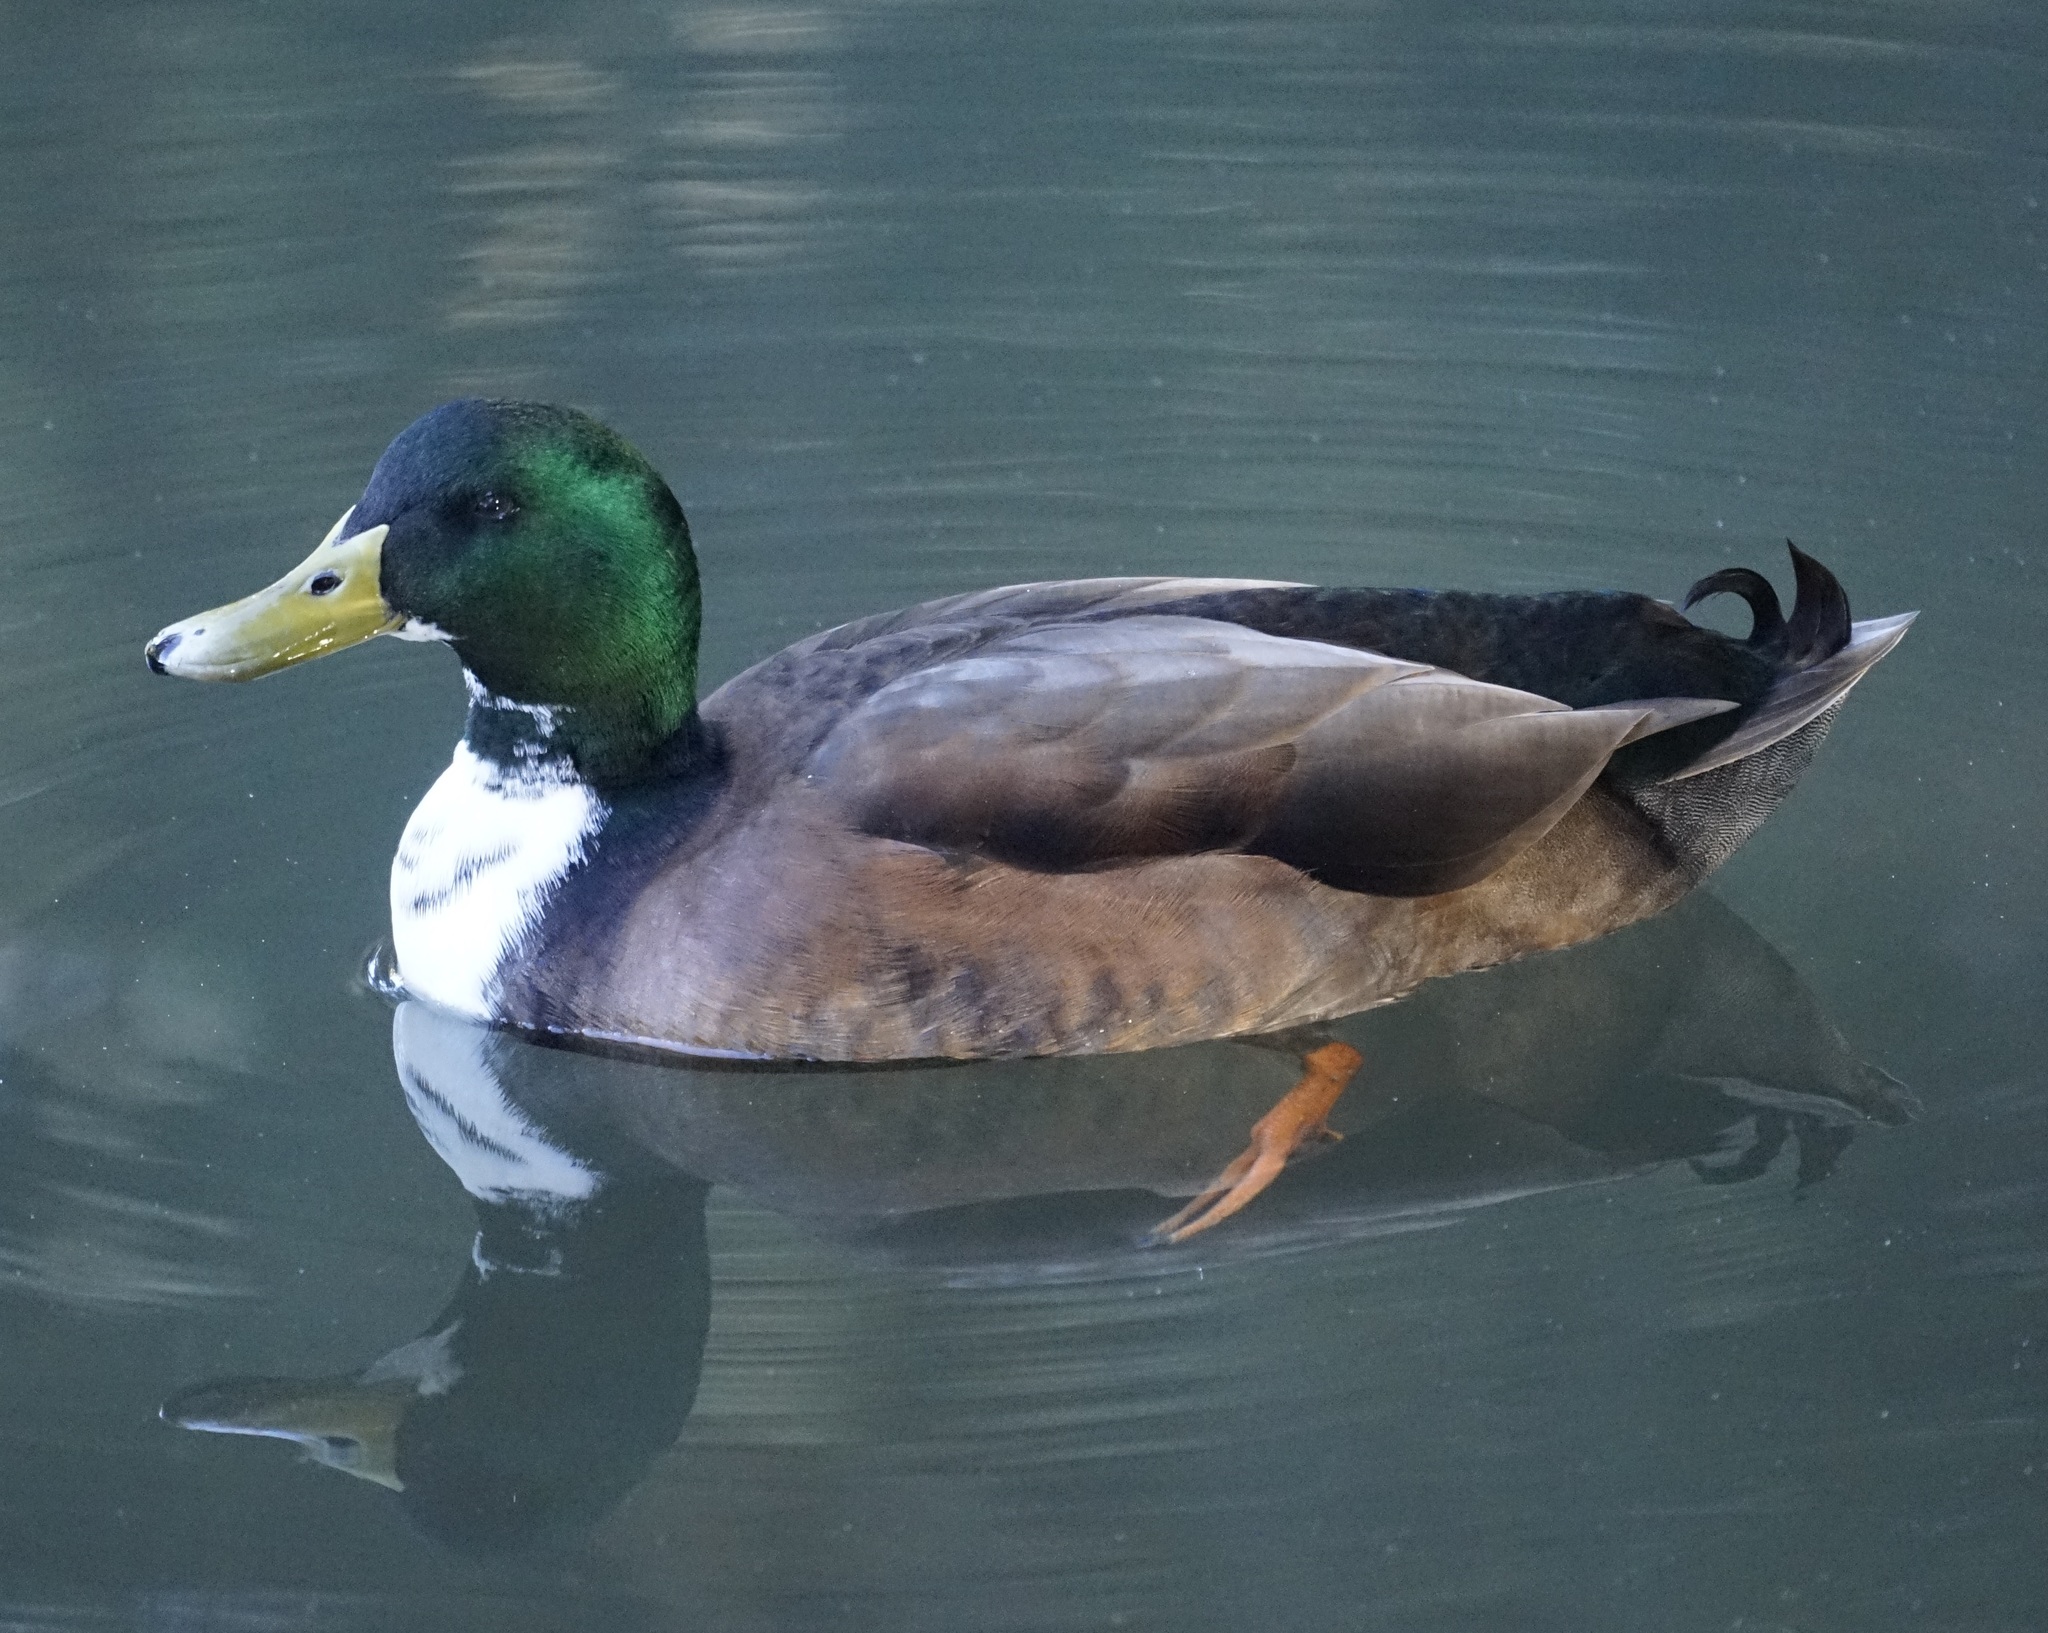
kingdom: Animalia
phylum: Chordata
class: Aves
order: Anseriformes
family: Anatidae
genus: Anas
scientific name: Anas platyrhynchos
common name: Mallard
